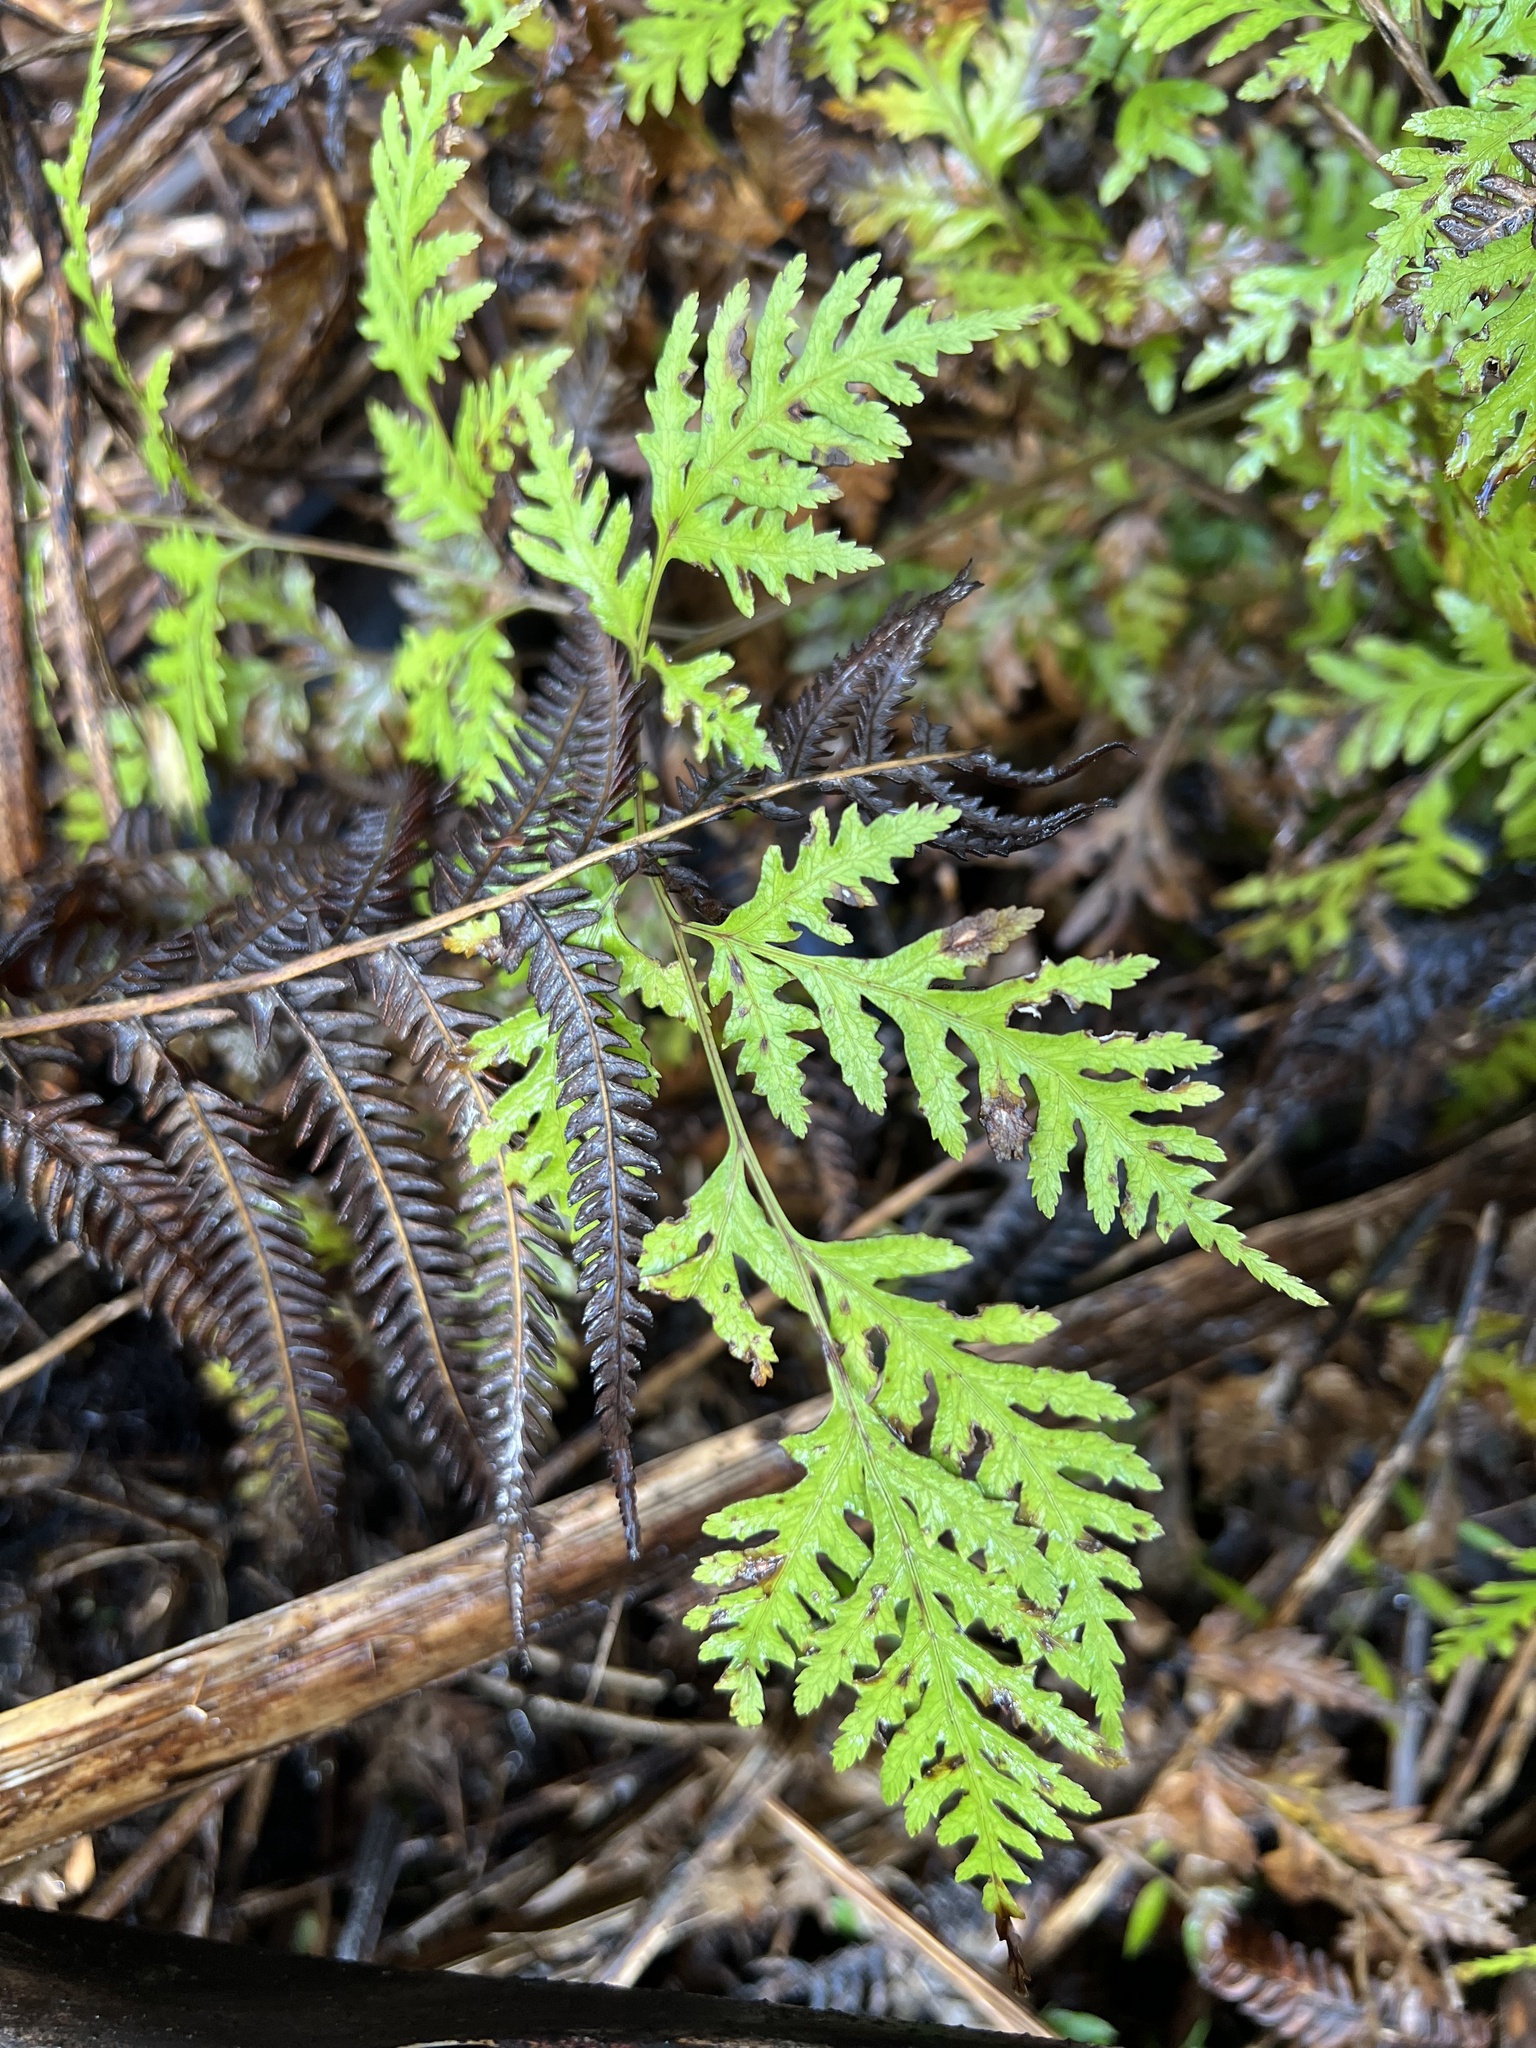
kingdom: Plantae
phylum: Tracheophyta
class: Polypodiopsida
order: Polypodiales
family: Pteridaceae
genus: Pteris
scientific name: Pteris macilenta
